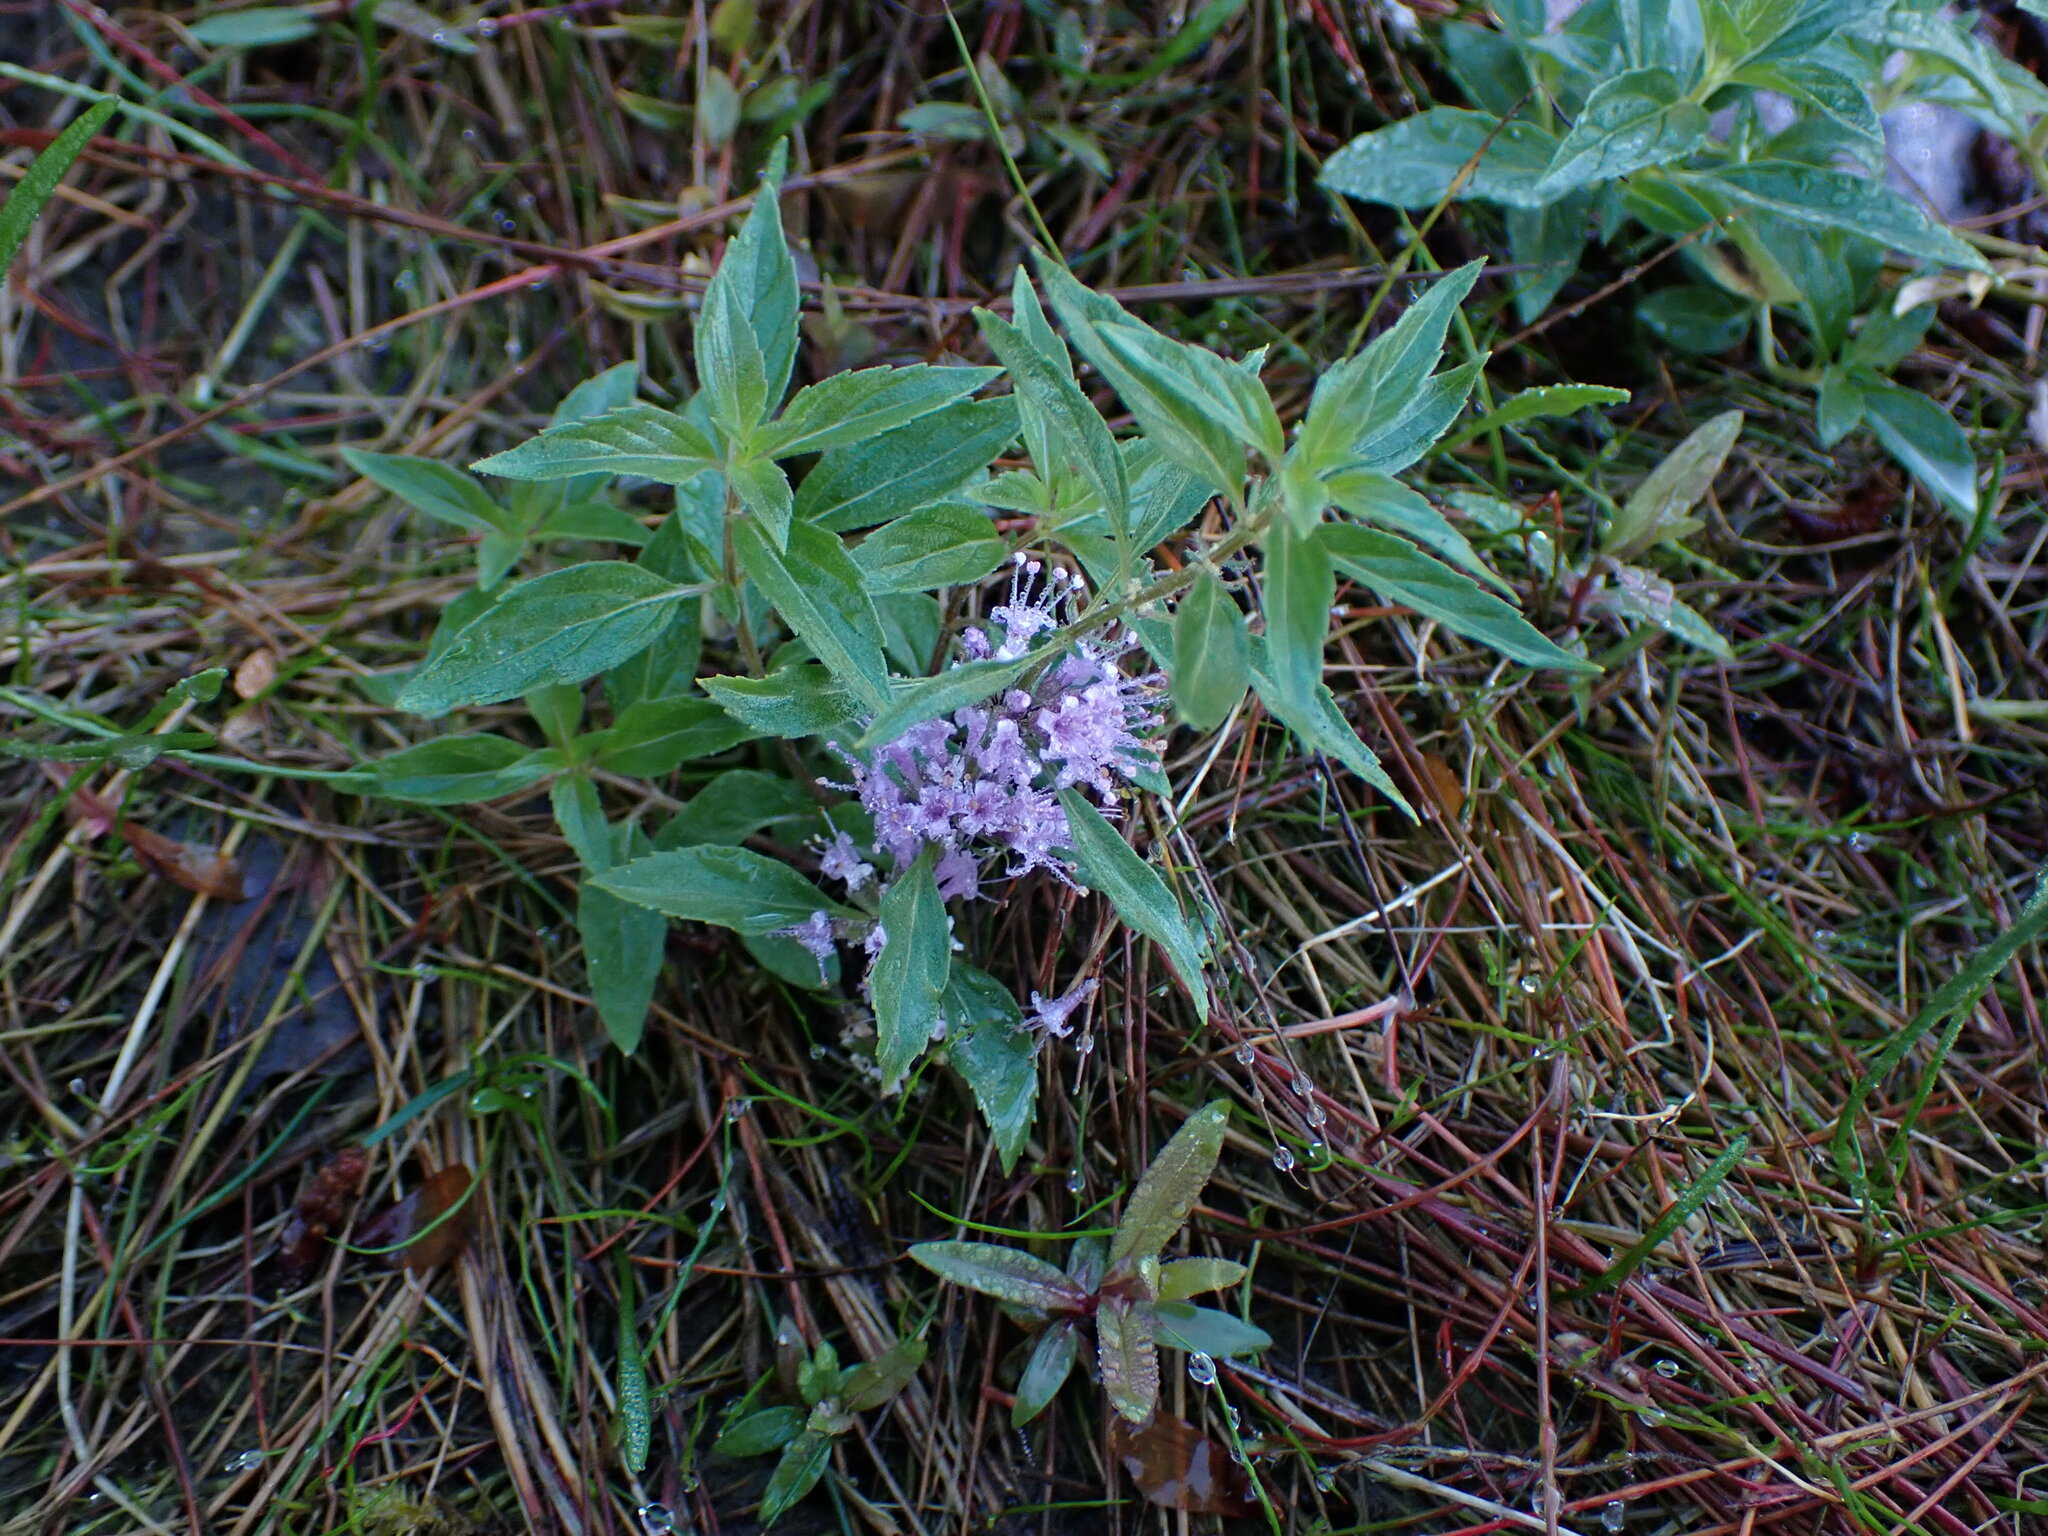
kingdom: Plantae
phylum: Tracheophyta
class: Magnoliopsida
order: Lamiales
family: Lamiaceae
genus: Mentha
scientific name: Mentha canadensis
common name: American corn mint
